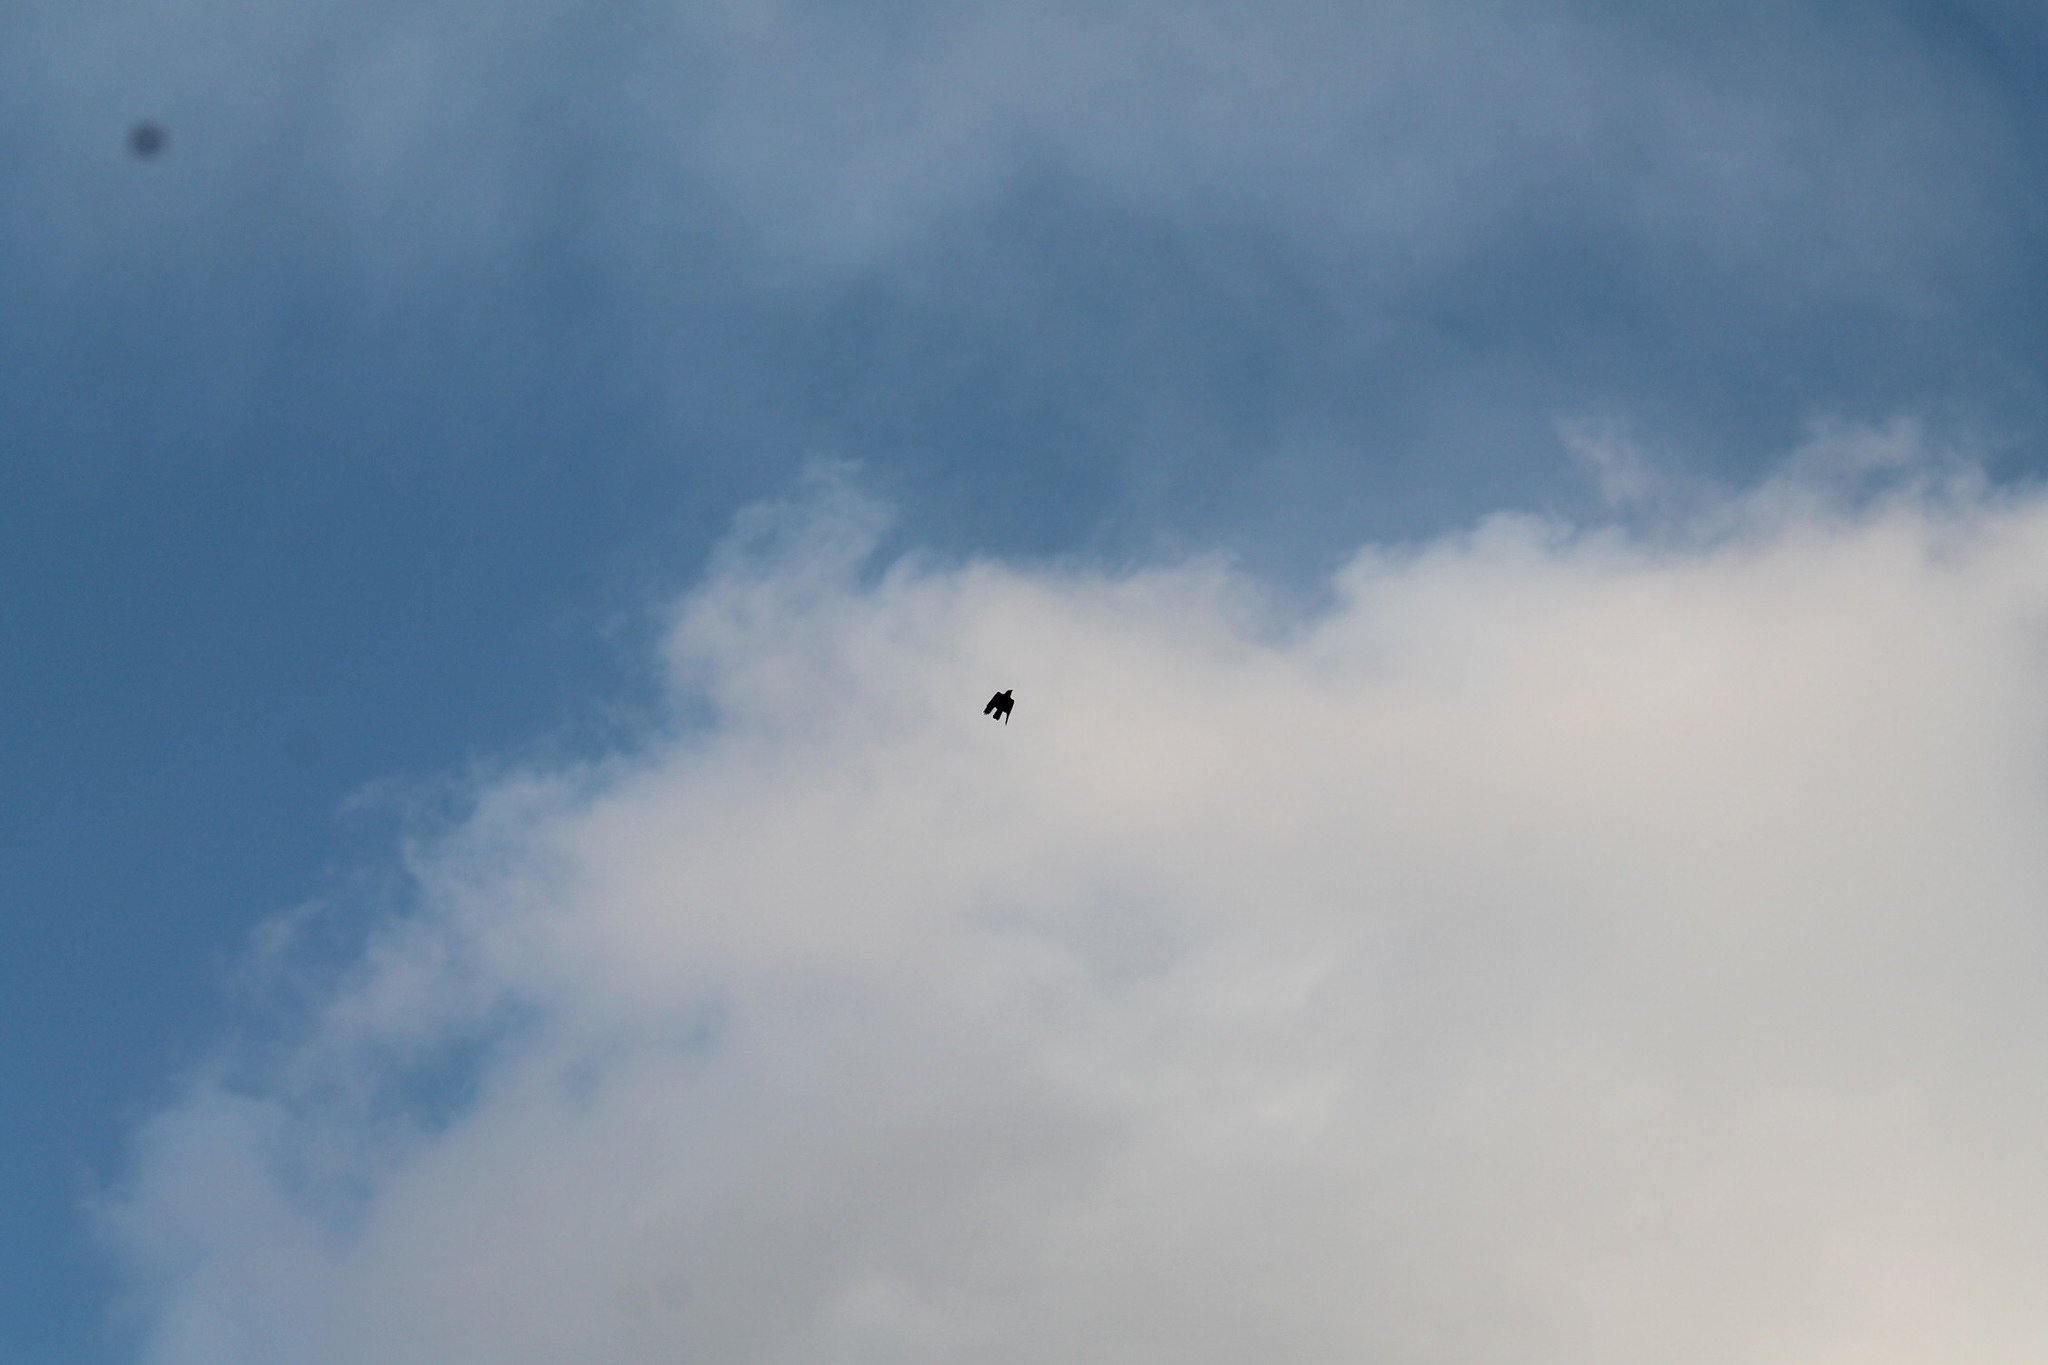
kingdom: Animalia
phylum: Chordata
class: Aves
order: Passeriformes
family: Corvidae
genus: Corvus
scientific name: Corvus brachyrhynchos
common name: American crow
